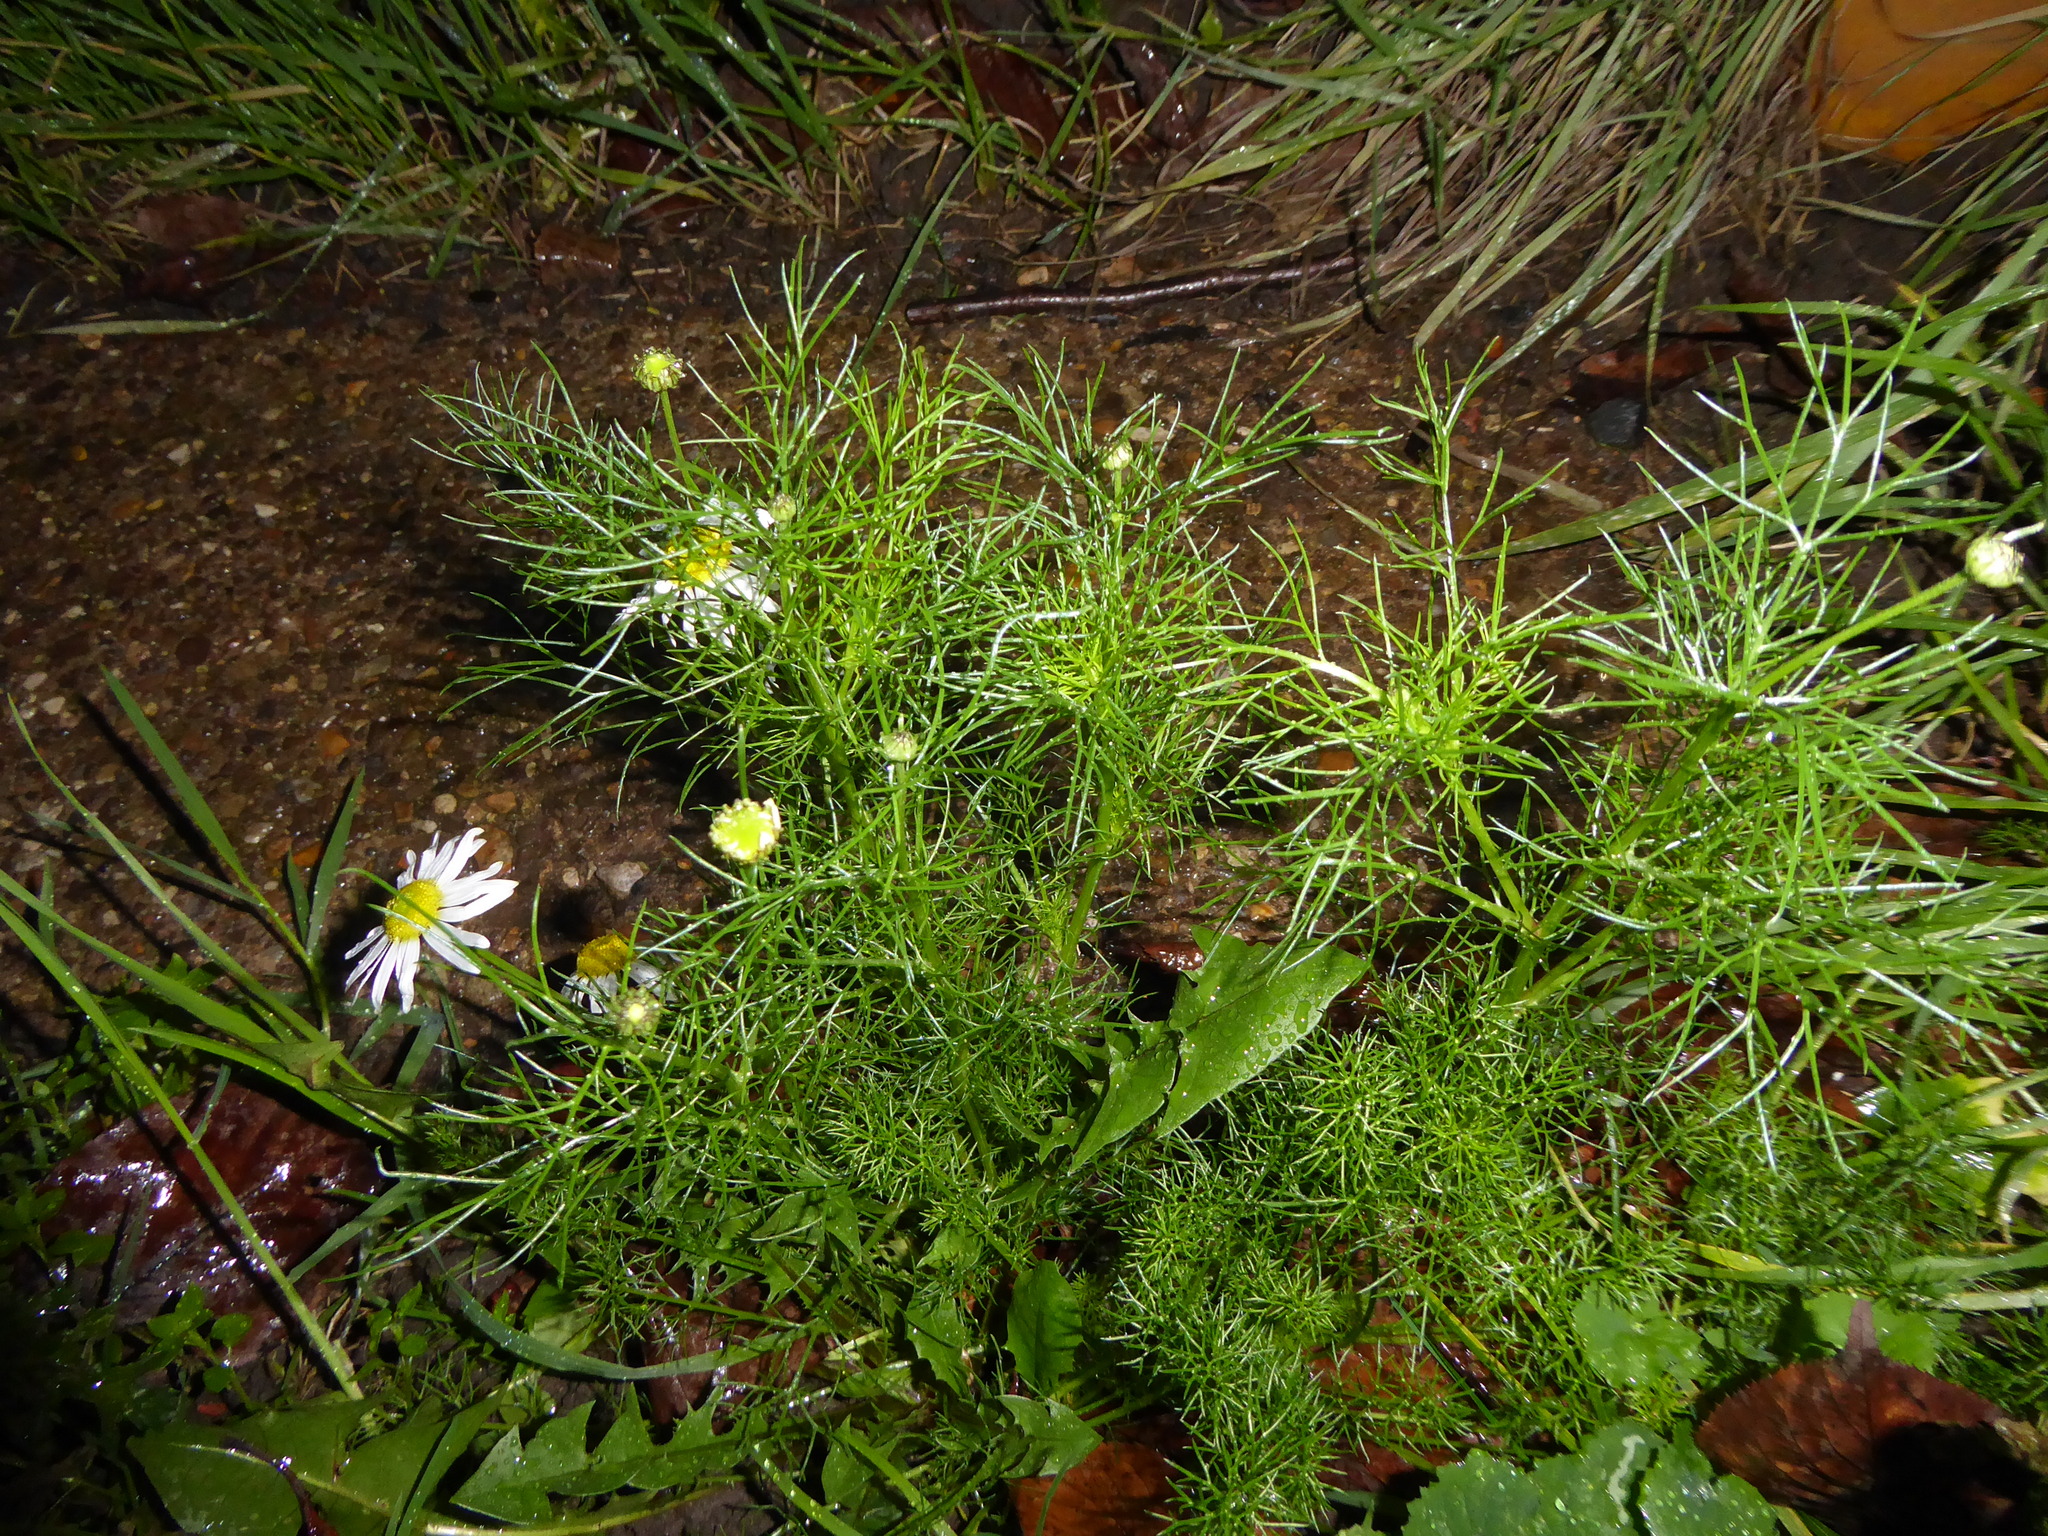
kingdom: Plantae
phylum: Tracheophyta
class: Magnoliopsida
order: Asterales
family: Asteraceae
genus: Tripleurospermum
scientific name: Tripleurospermum inodorum
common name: Scentless mayweed
